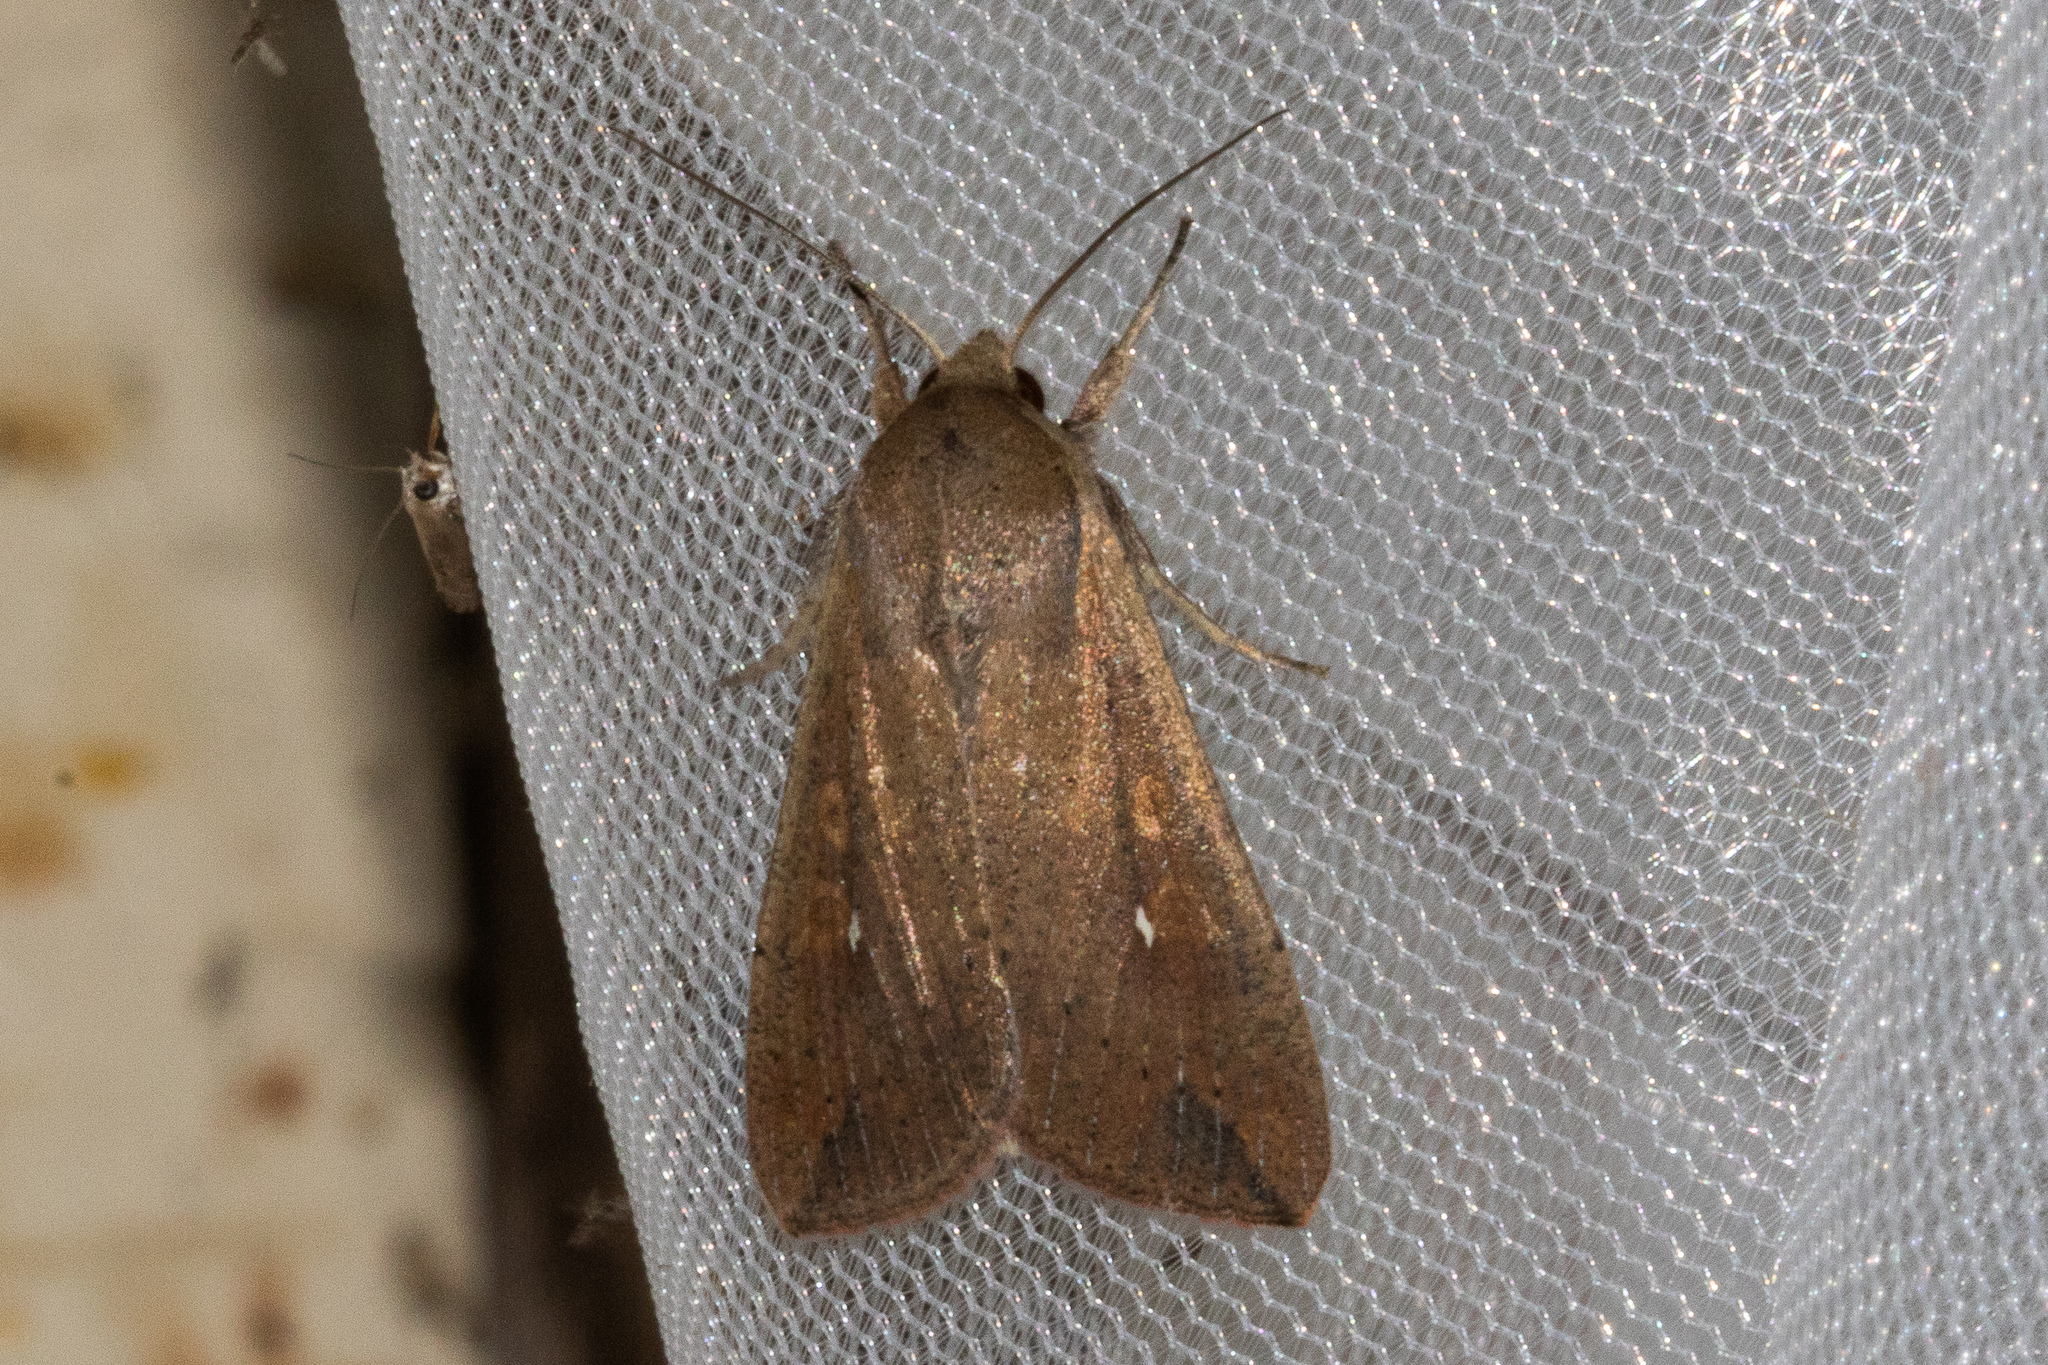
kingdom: Animalia
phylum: Arthropoda
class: Insecta
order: Lepidoptera
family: Noctuidae
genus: Mythimna
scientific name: Mythimna unipuncta
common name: White-speck
